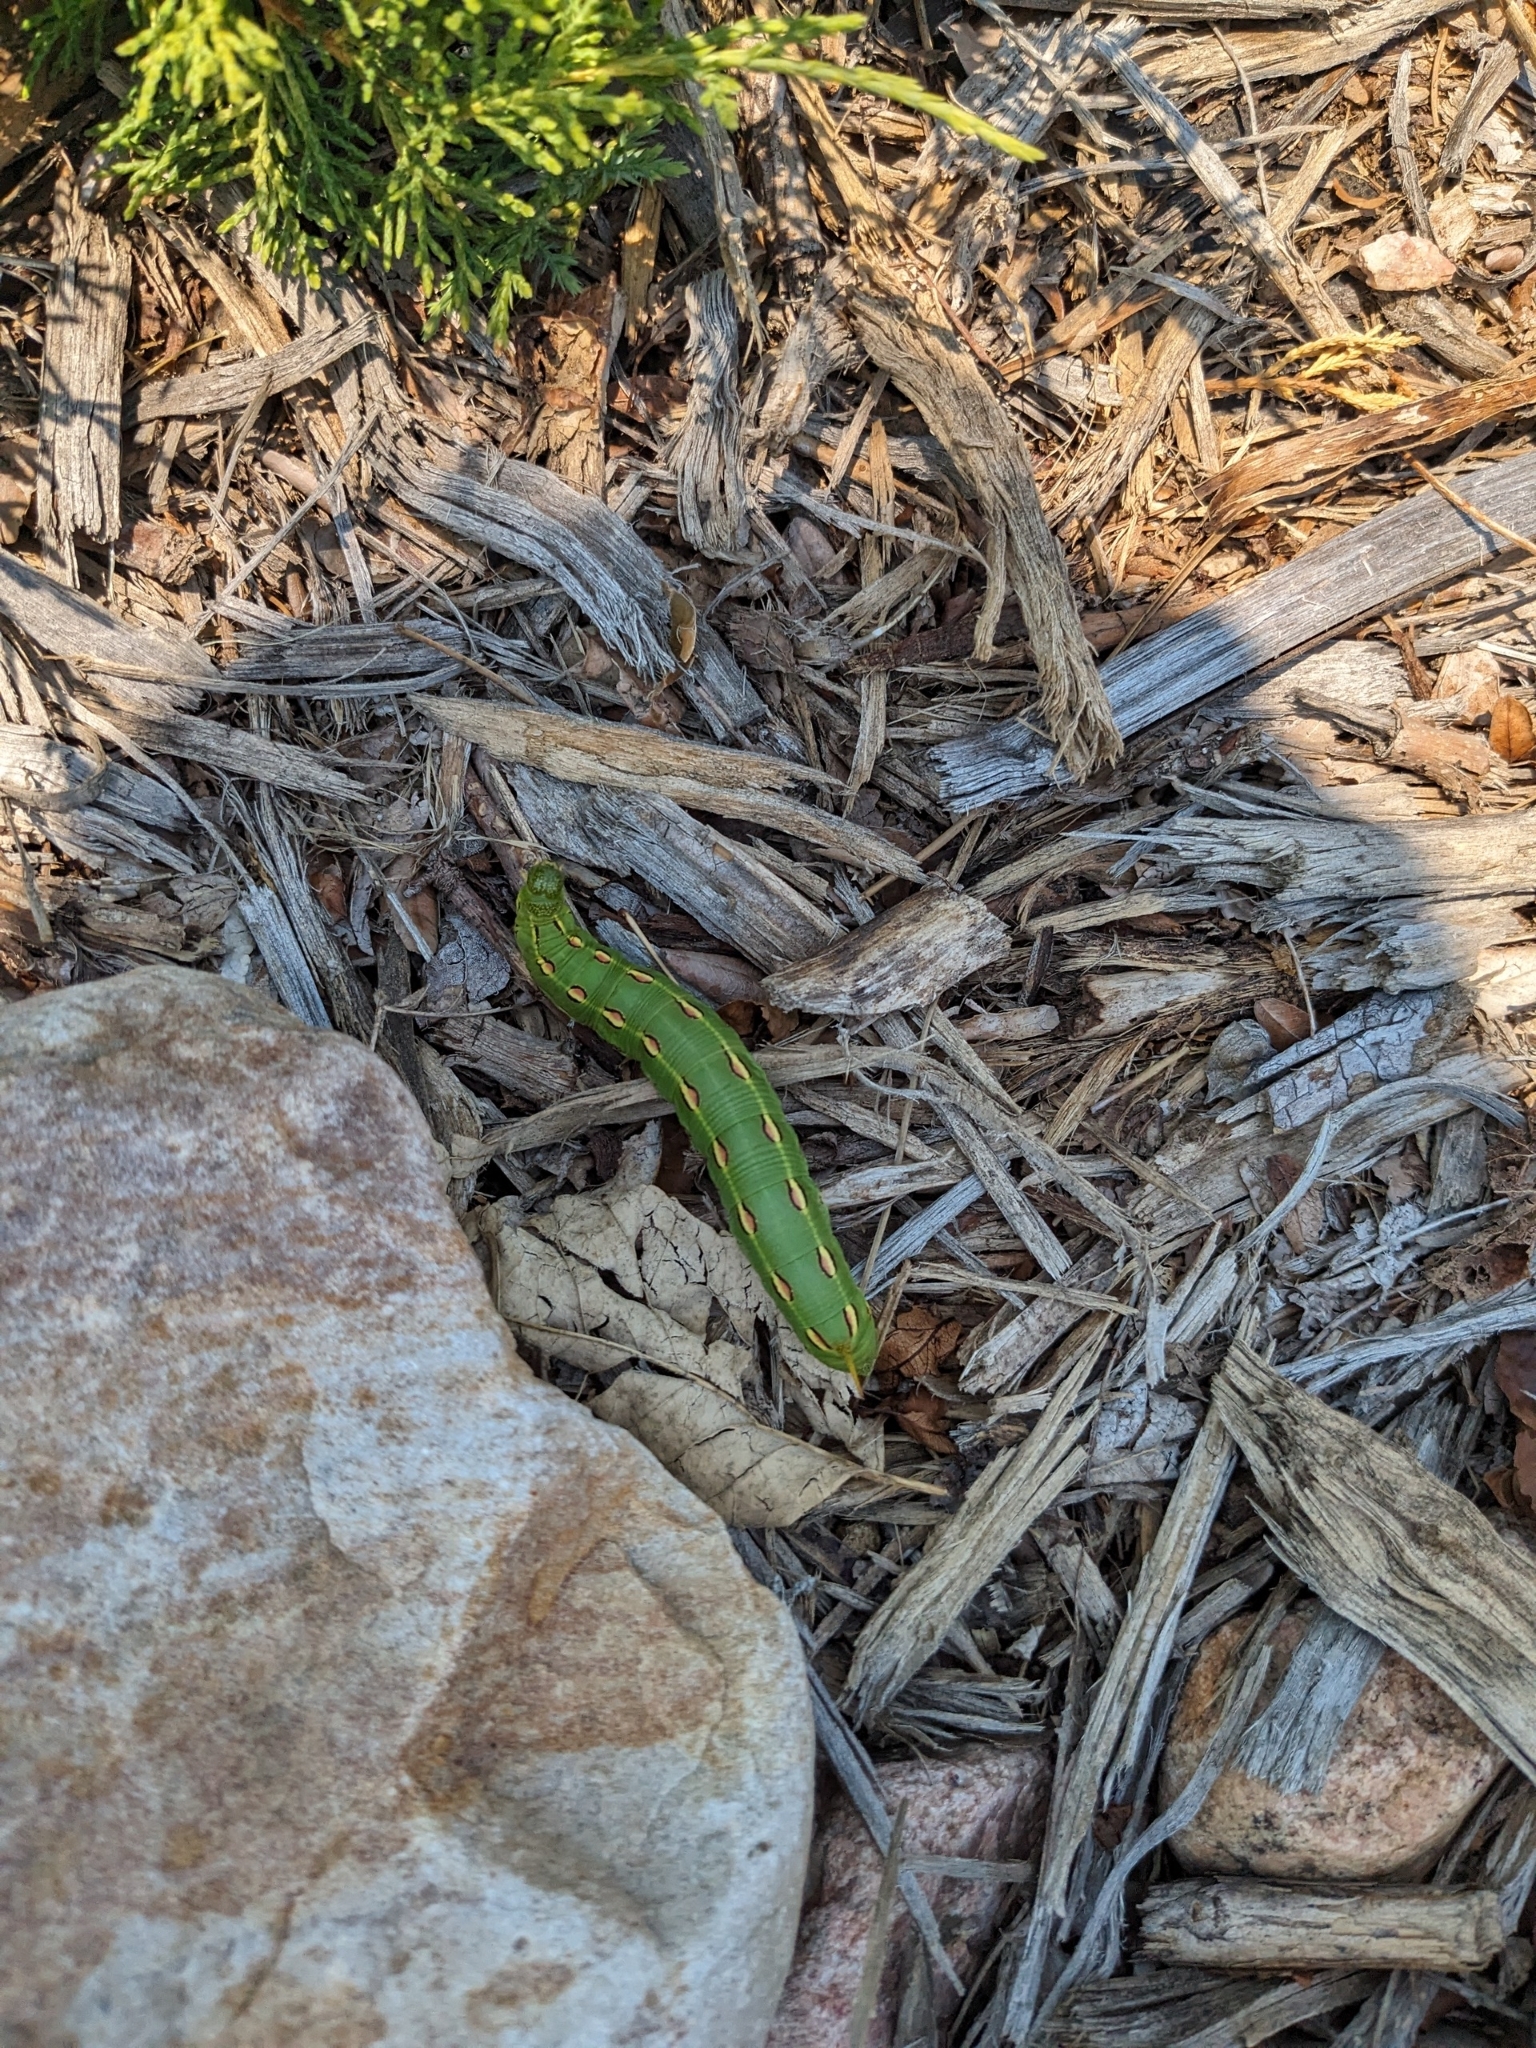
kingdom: Animalia
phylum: Arthropoda
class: Insecta
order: Lepidoptera
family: Sphingidae
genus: Hyles
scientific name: Hyles lineata
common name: White-lined sphinx
